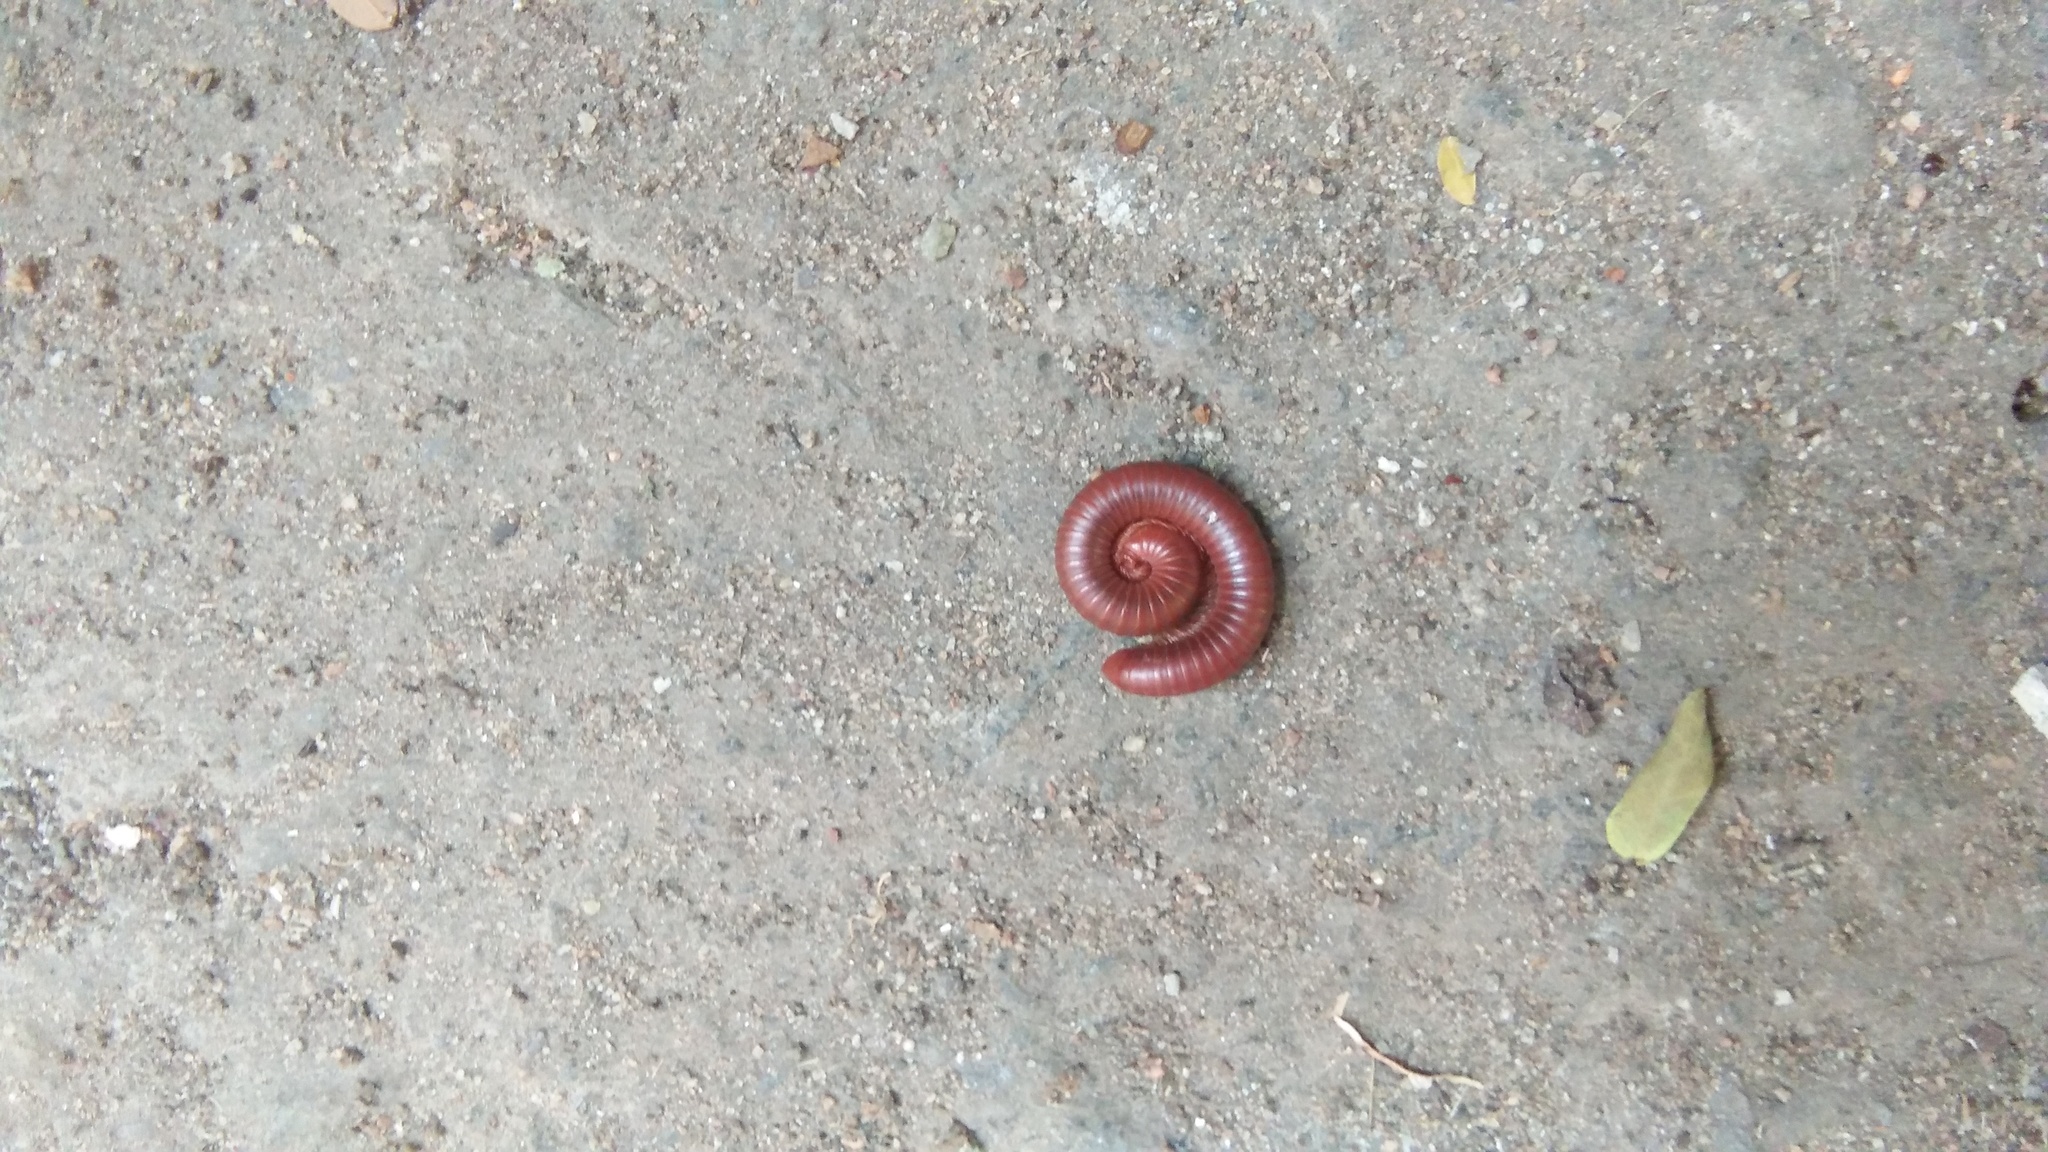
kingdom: Animalia
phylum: Arthropoda
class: Diplopoda
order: Spirobolida
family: Pachybolidae
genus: Trigoniulus
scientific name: Trigoniulus corallinus
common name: Millipede
